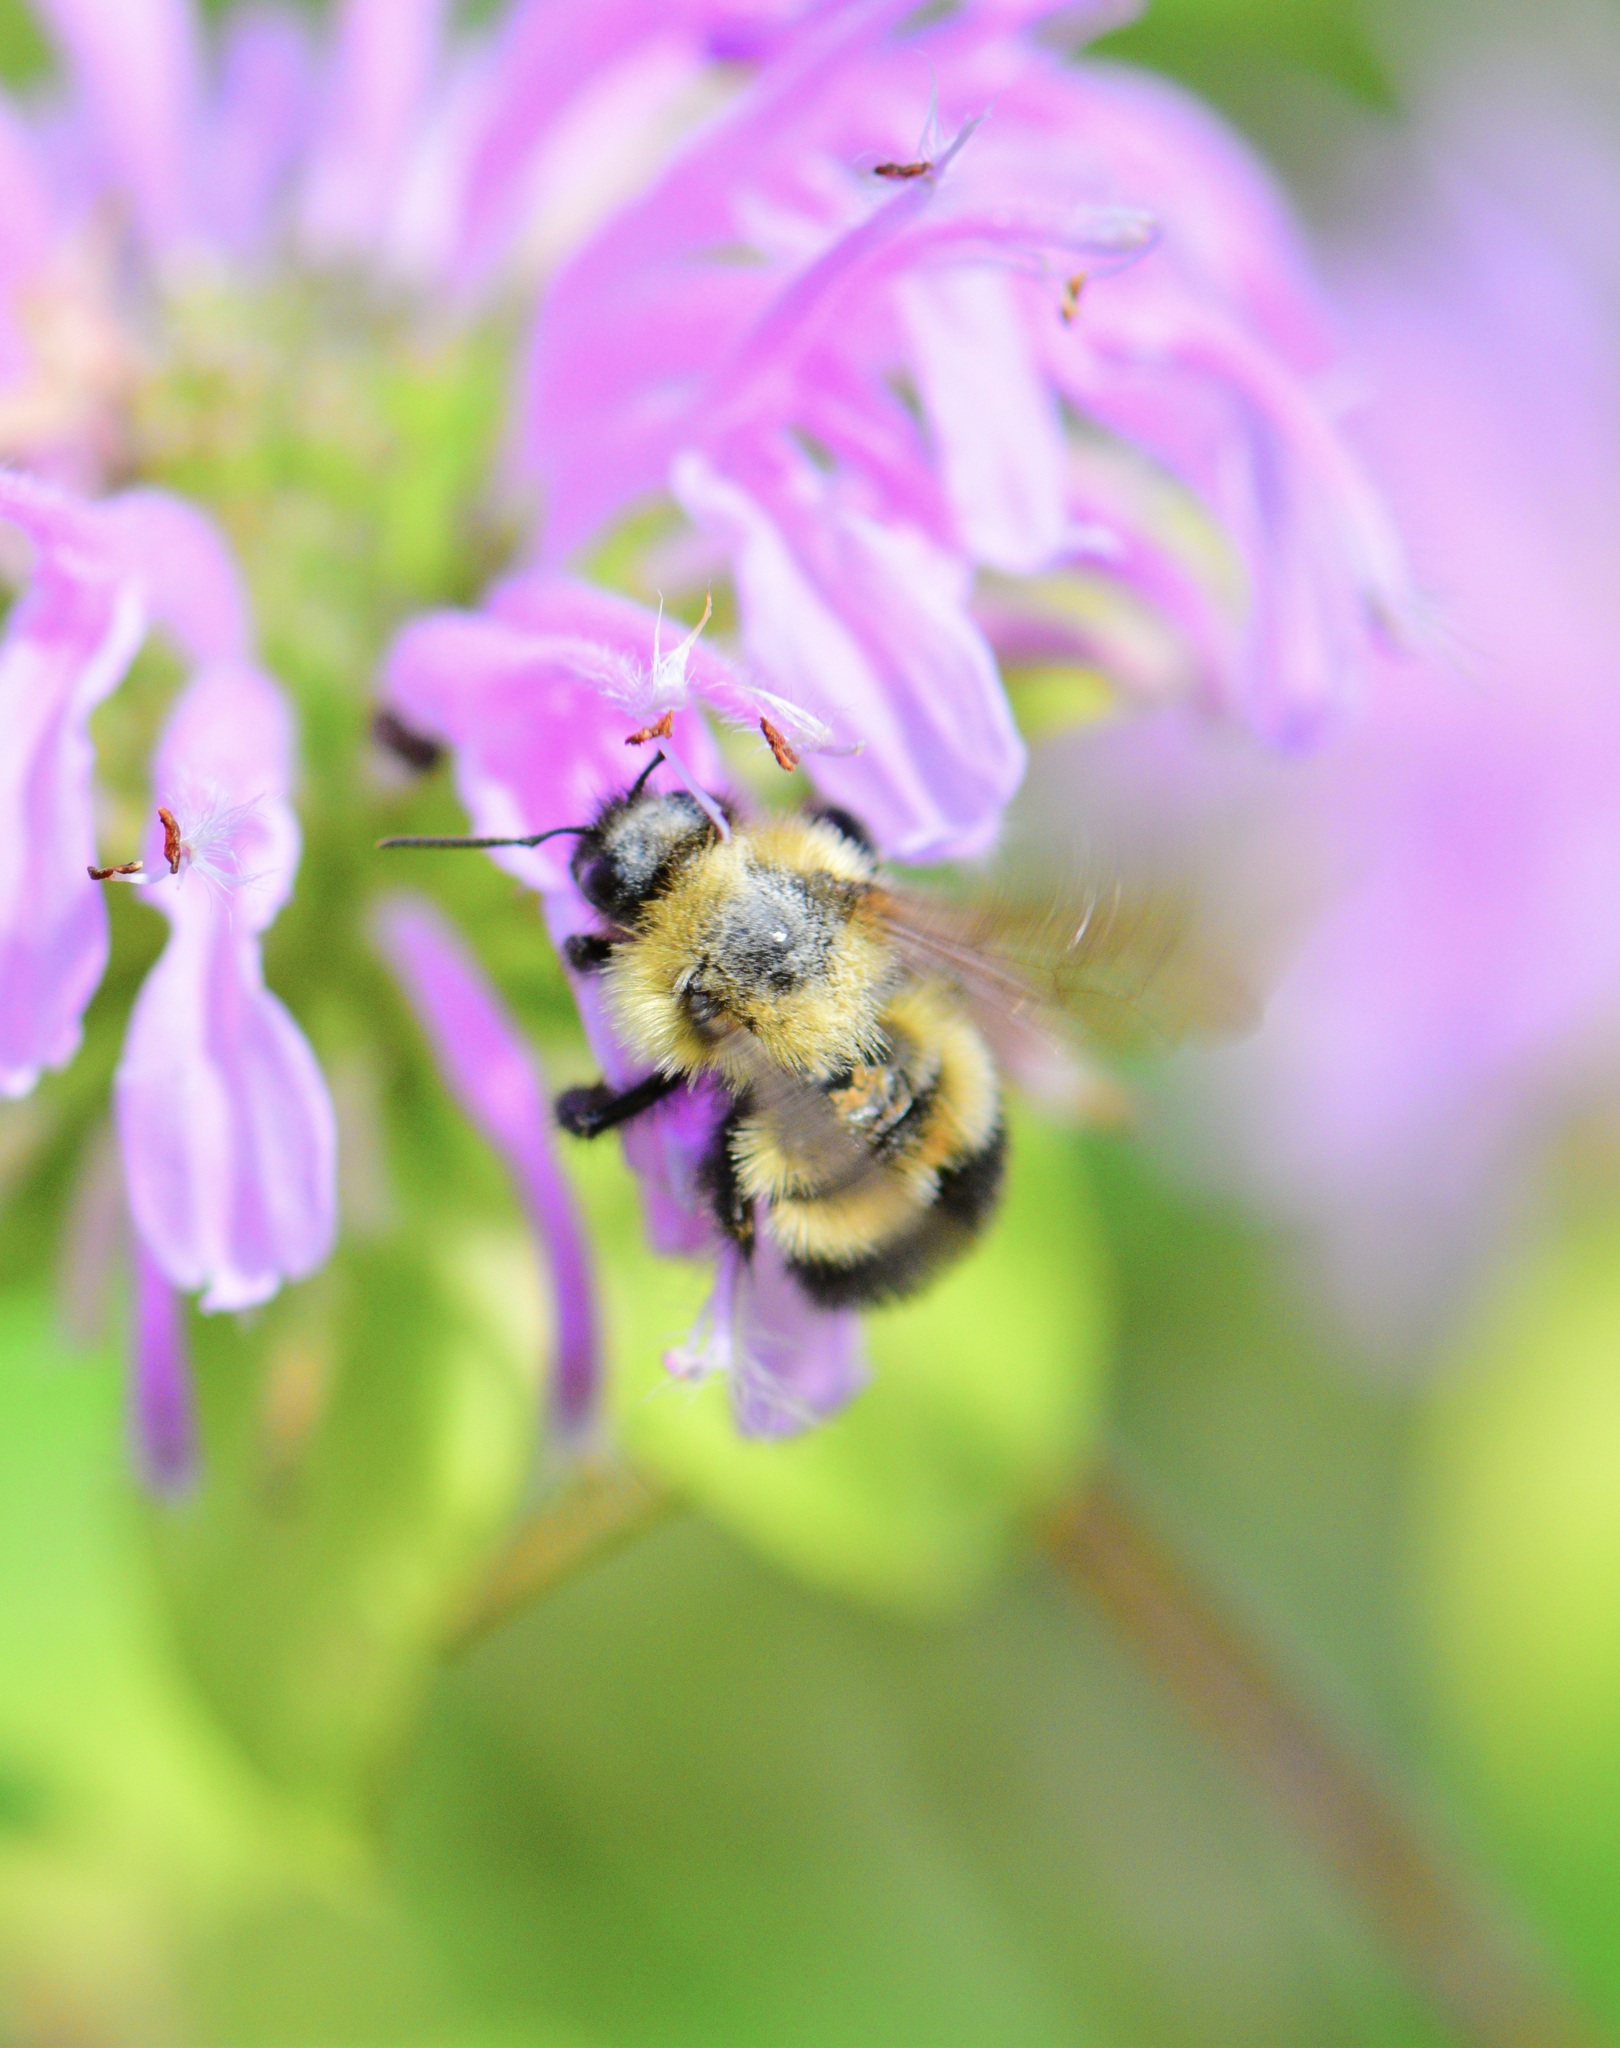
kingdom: Animalia
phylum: Arthropoda
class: Insecta
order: Hymenoptera
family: Apidae
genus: Pyrobombus
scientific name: Pyrobombus
